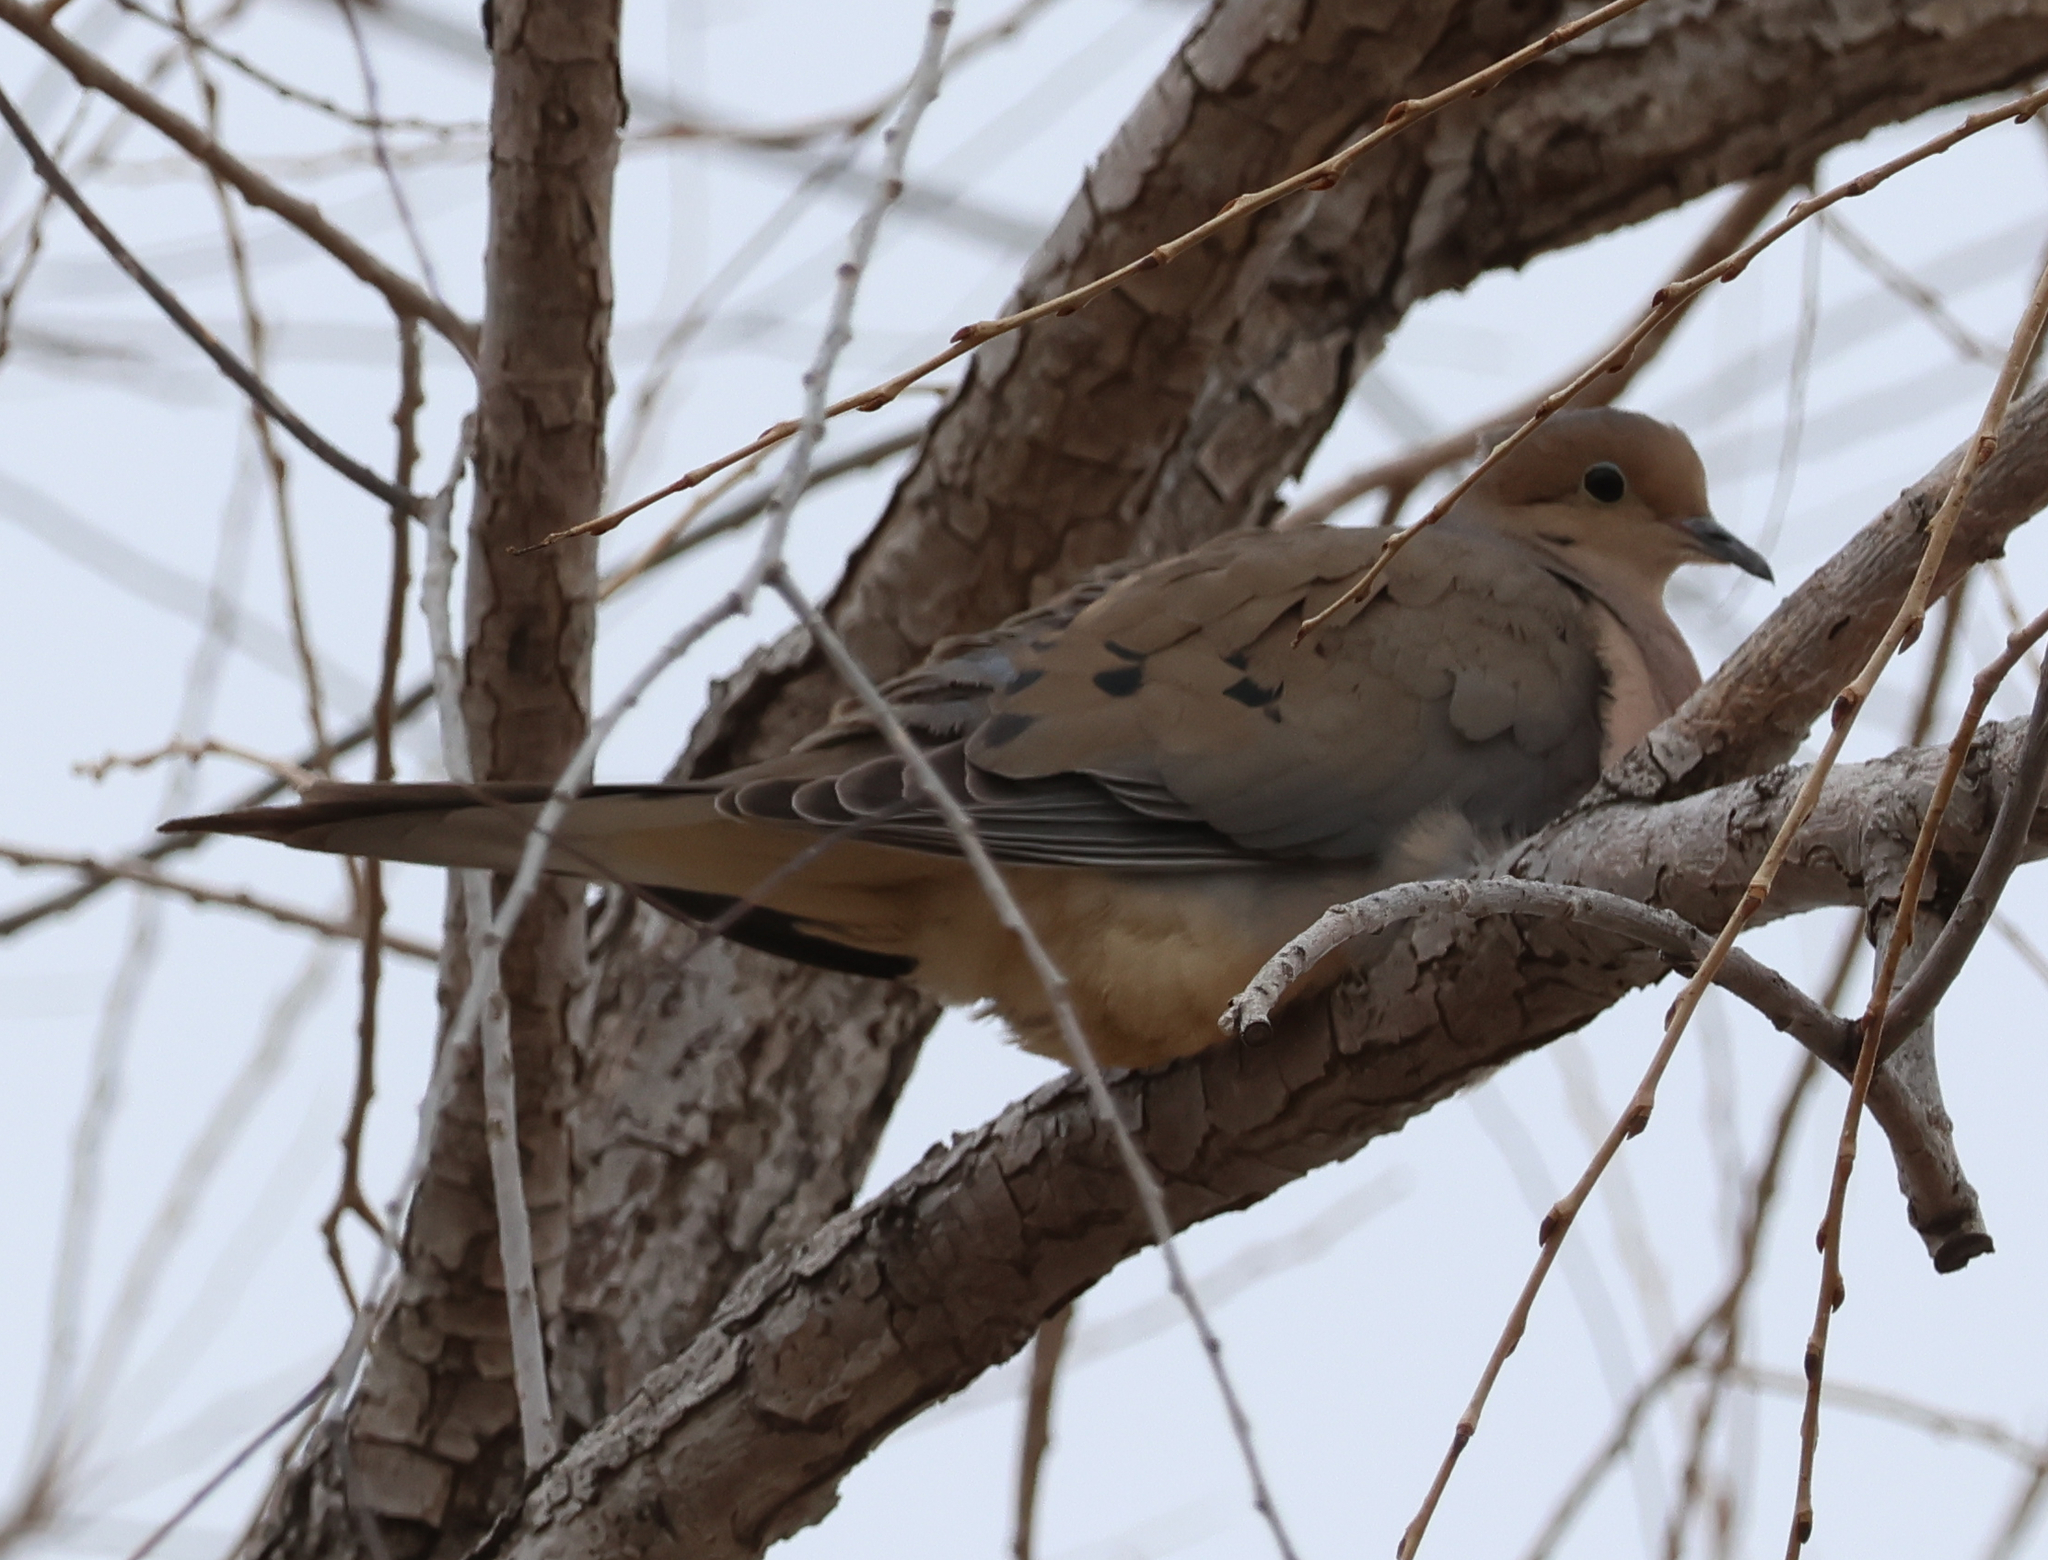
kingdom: Animalia
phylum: Chordata
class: Aves
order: Columbiformes
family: Columbidae
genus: Zenaida
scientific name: Zenaida macroura
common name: Mourning dove
